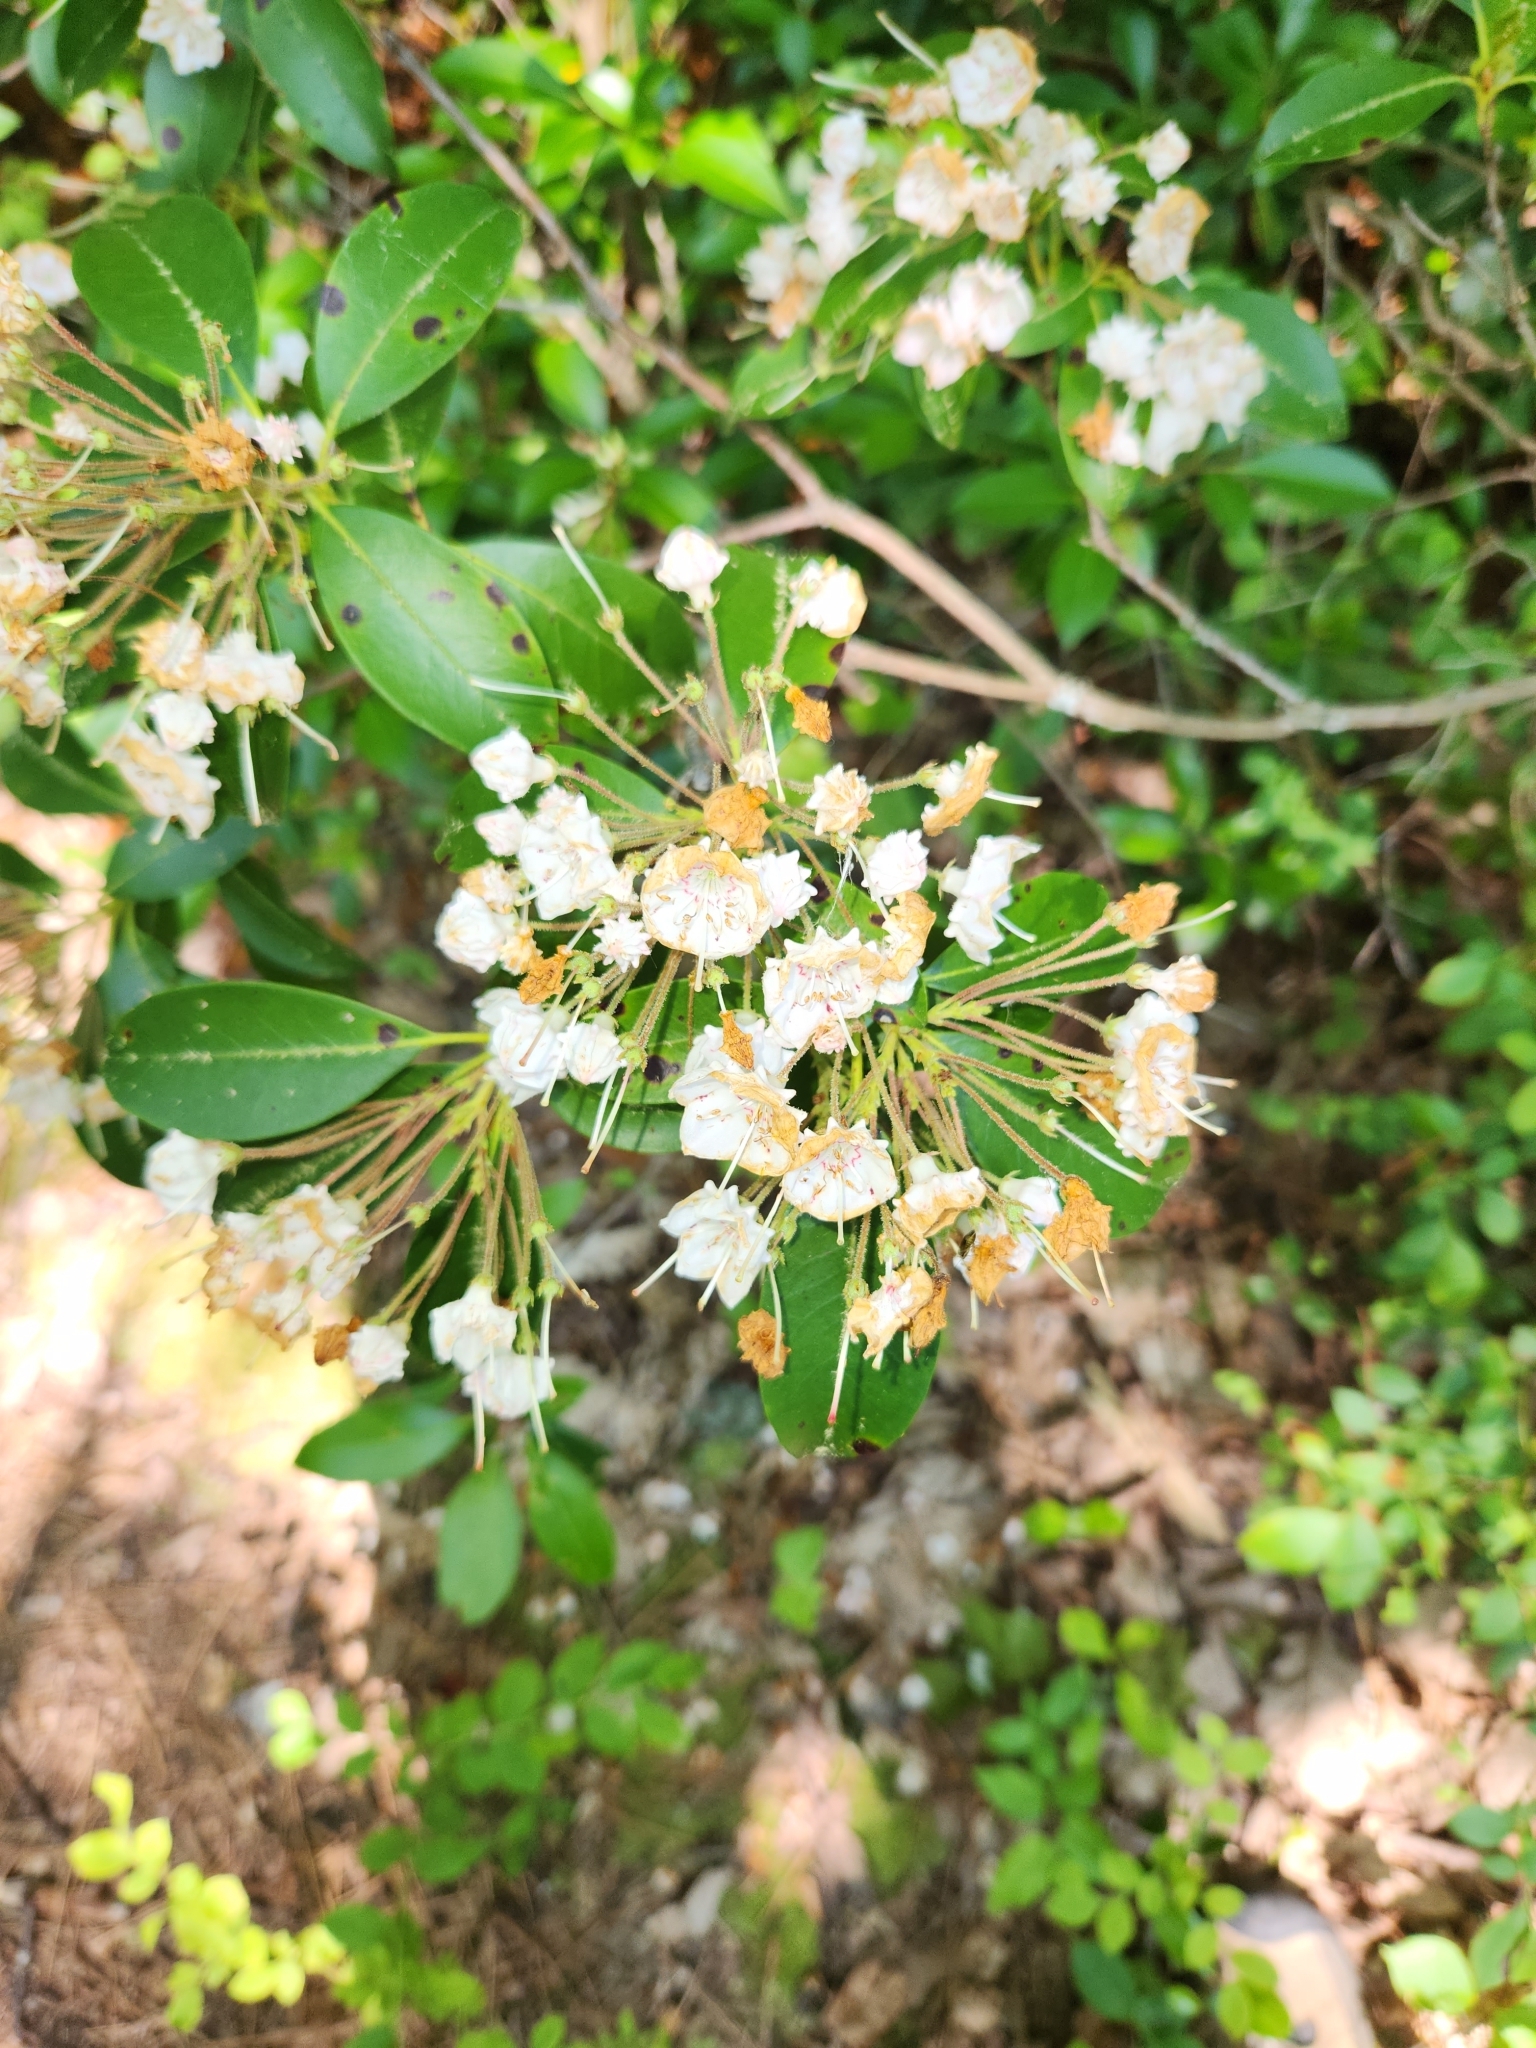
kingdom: Plantae
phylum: Tracheophyta
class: Magnoliopsida
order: Ericales
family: Ericaceae
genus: Kalmia
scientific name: Kalmia latifolia
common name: Mountain-laurel
